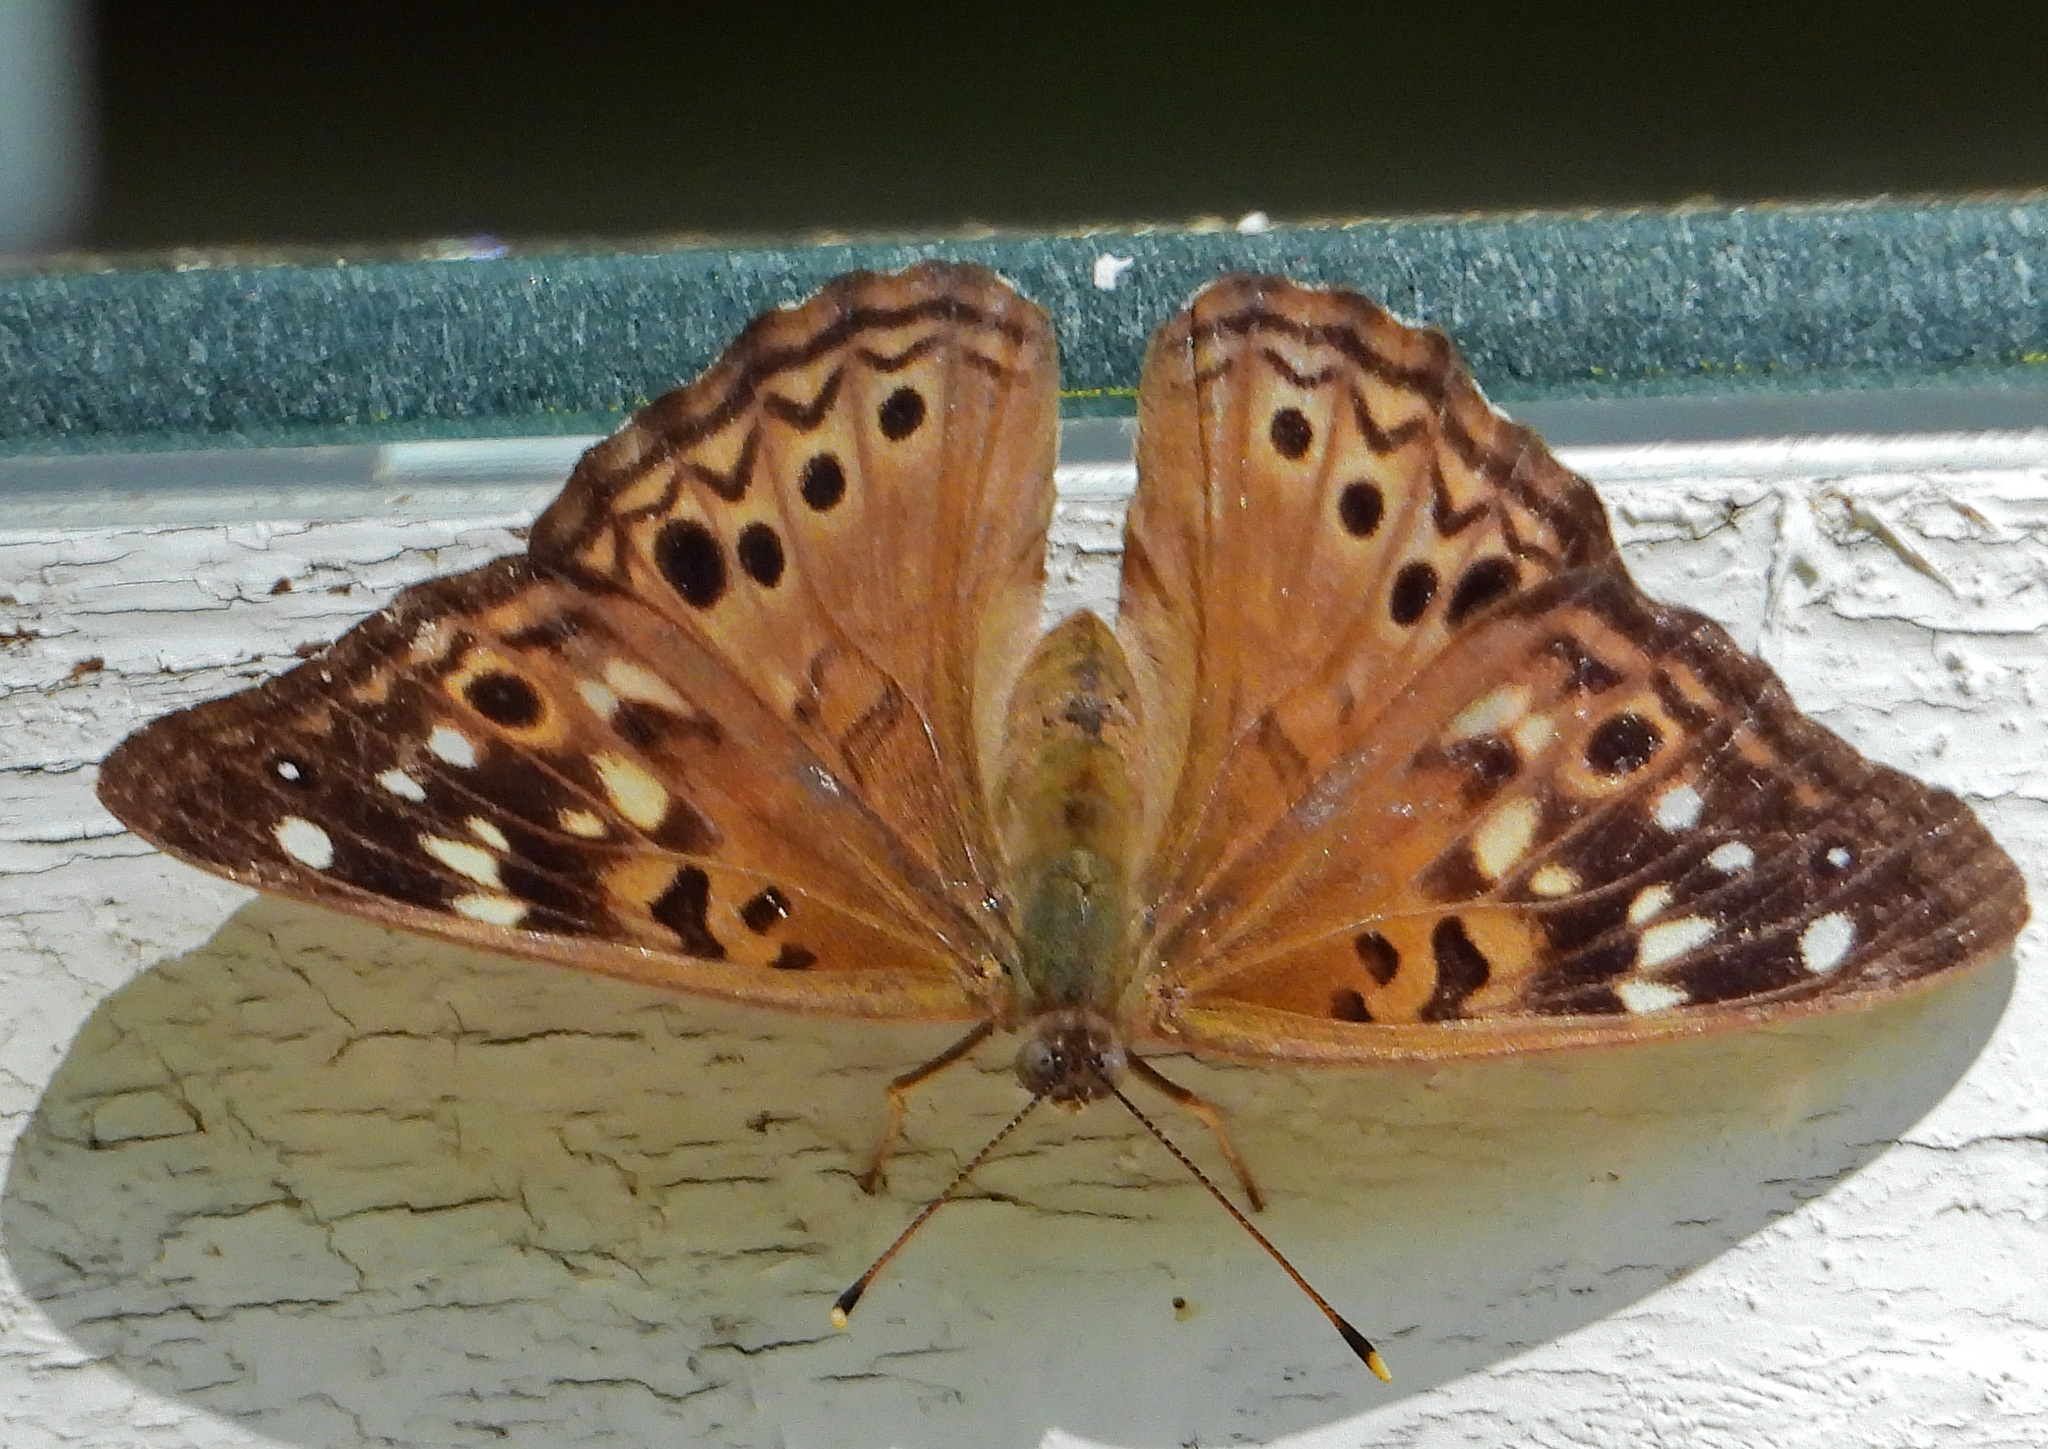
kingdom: Animalia
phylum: Arthropoda
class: Insecta
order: Lepidoptera
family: Nymphalidae
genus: Asterocampa
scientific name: Asterocampa celtis
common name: Hackberry emperor
